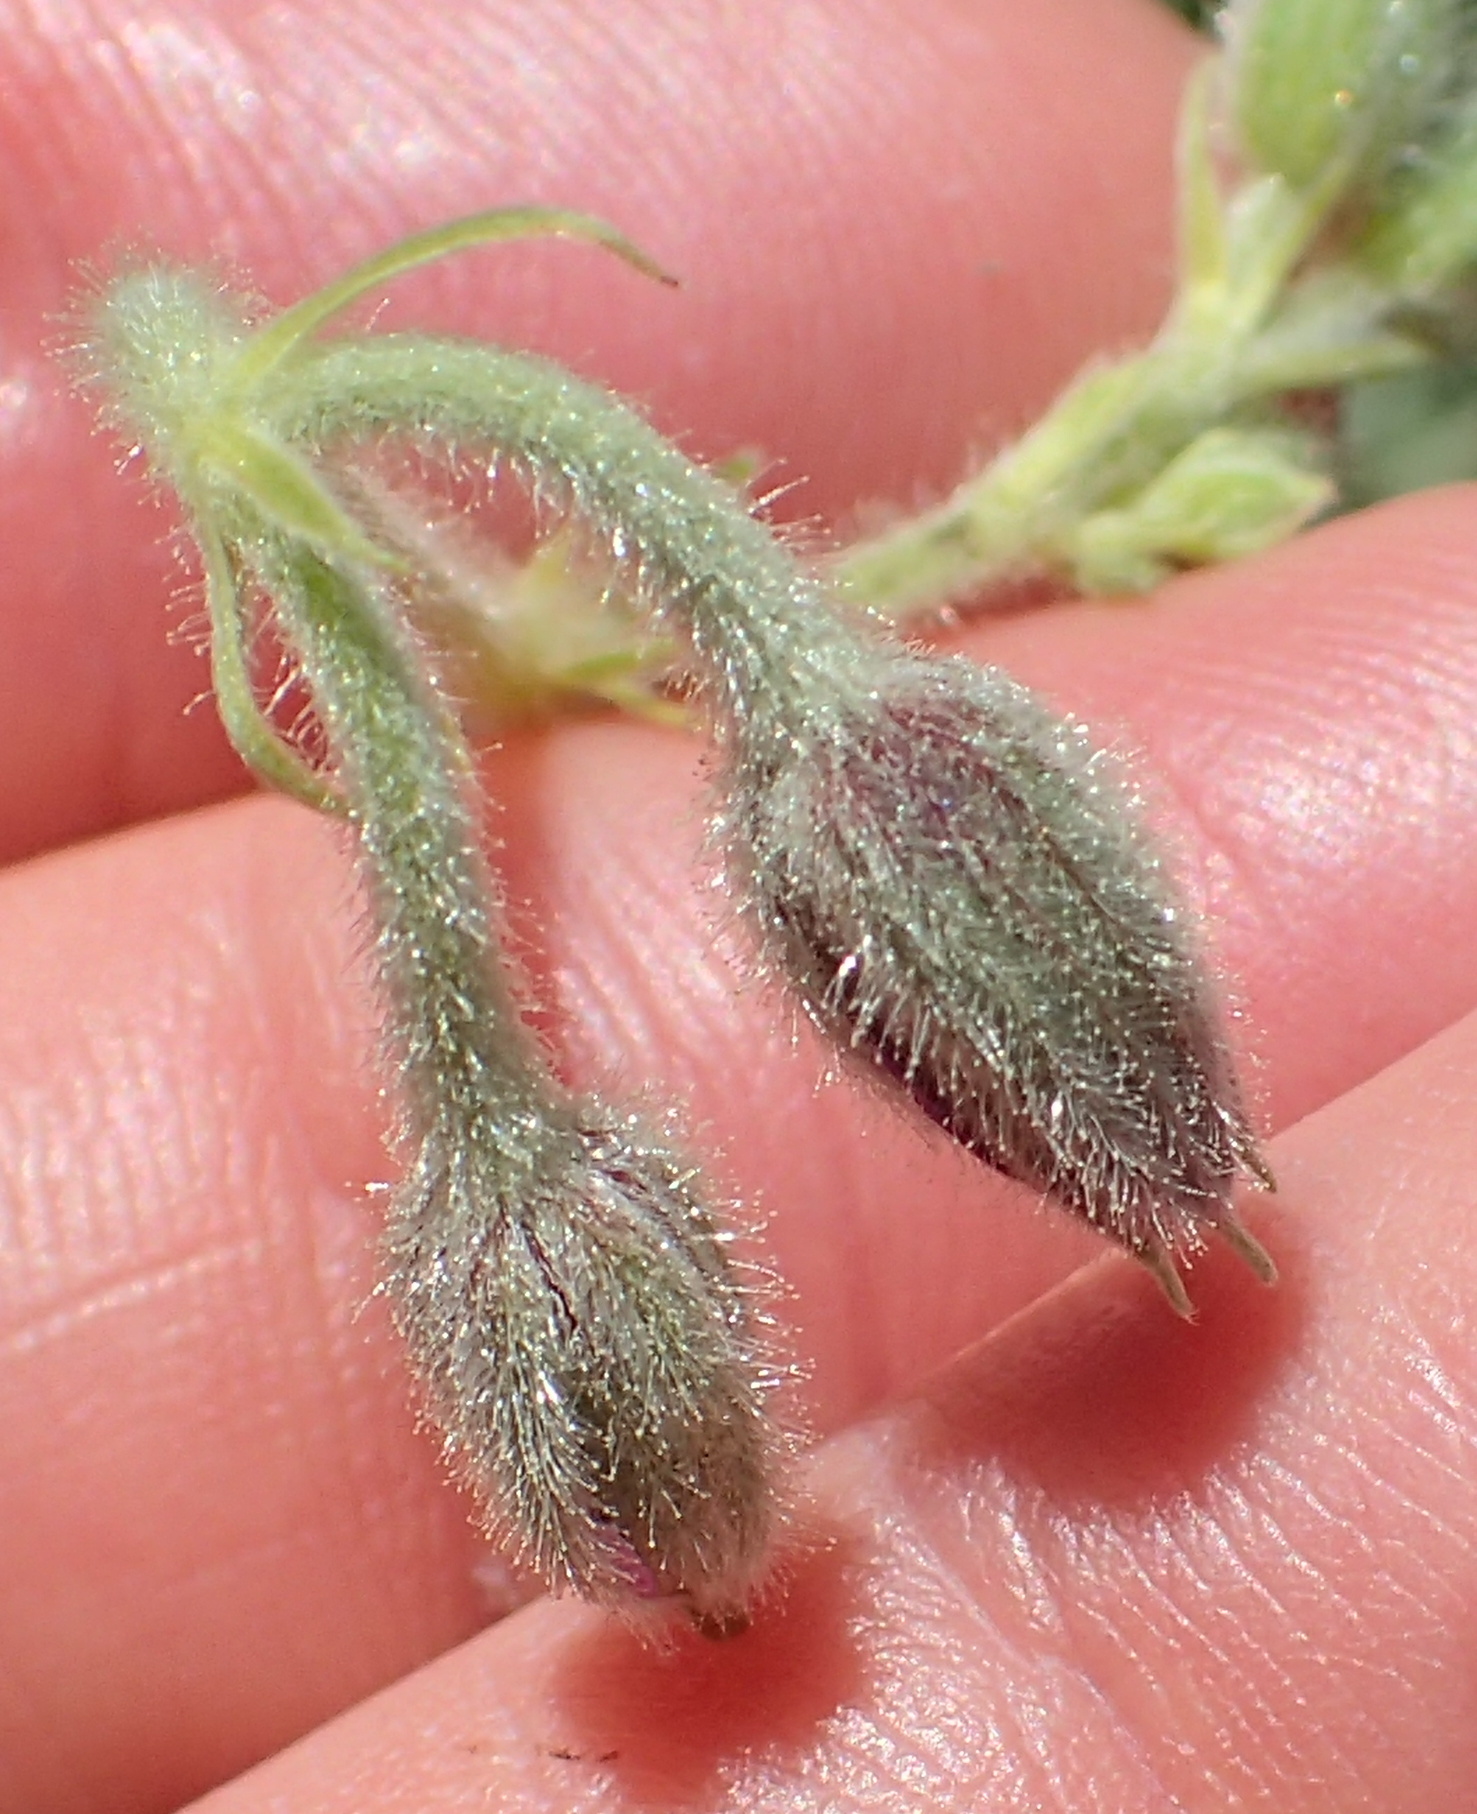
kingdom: Plantae
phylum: Tracheophyta
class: Magnoliopsida
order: Geraniales
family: Geraniaceae
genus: Geranium
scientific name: Geranium multisectum
